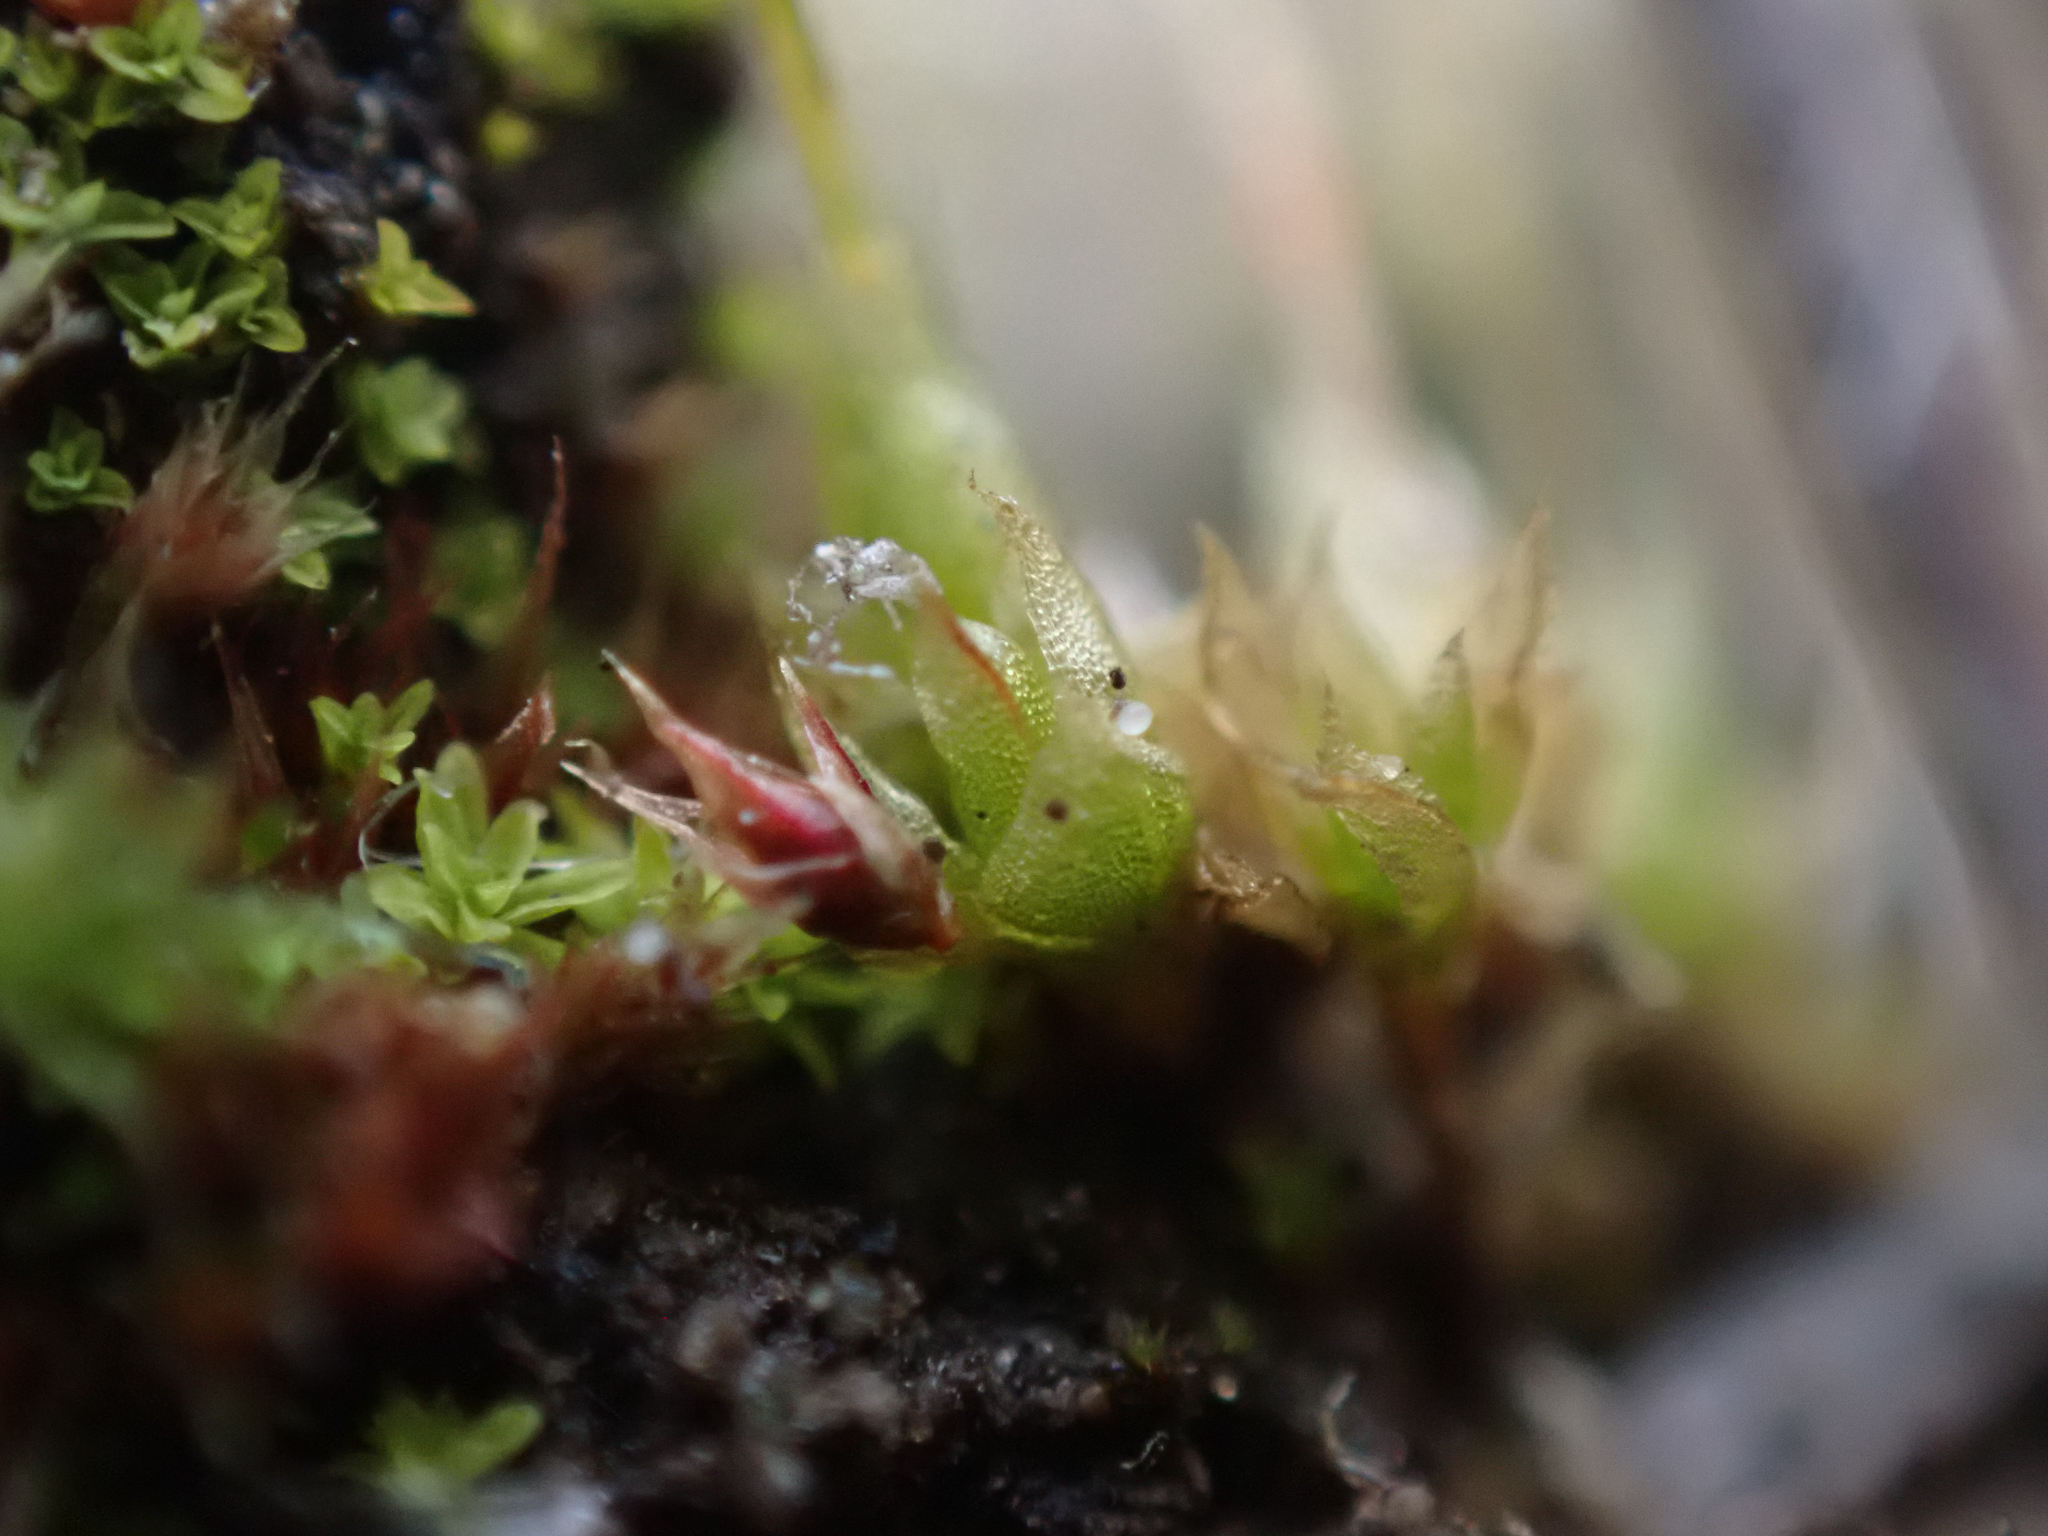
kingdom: Plantae
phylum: Bryophyta
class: Bryopsida
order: Funariales
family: Funariaceae
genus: Funaria
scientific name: Funaria hygrometrica
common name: Common cord moss
